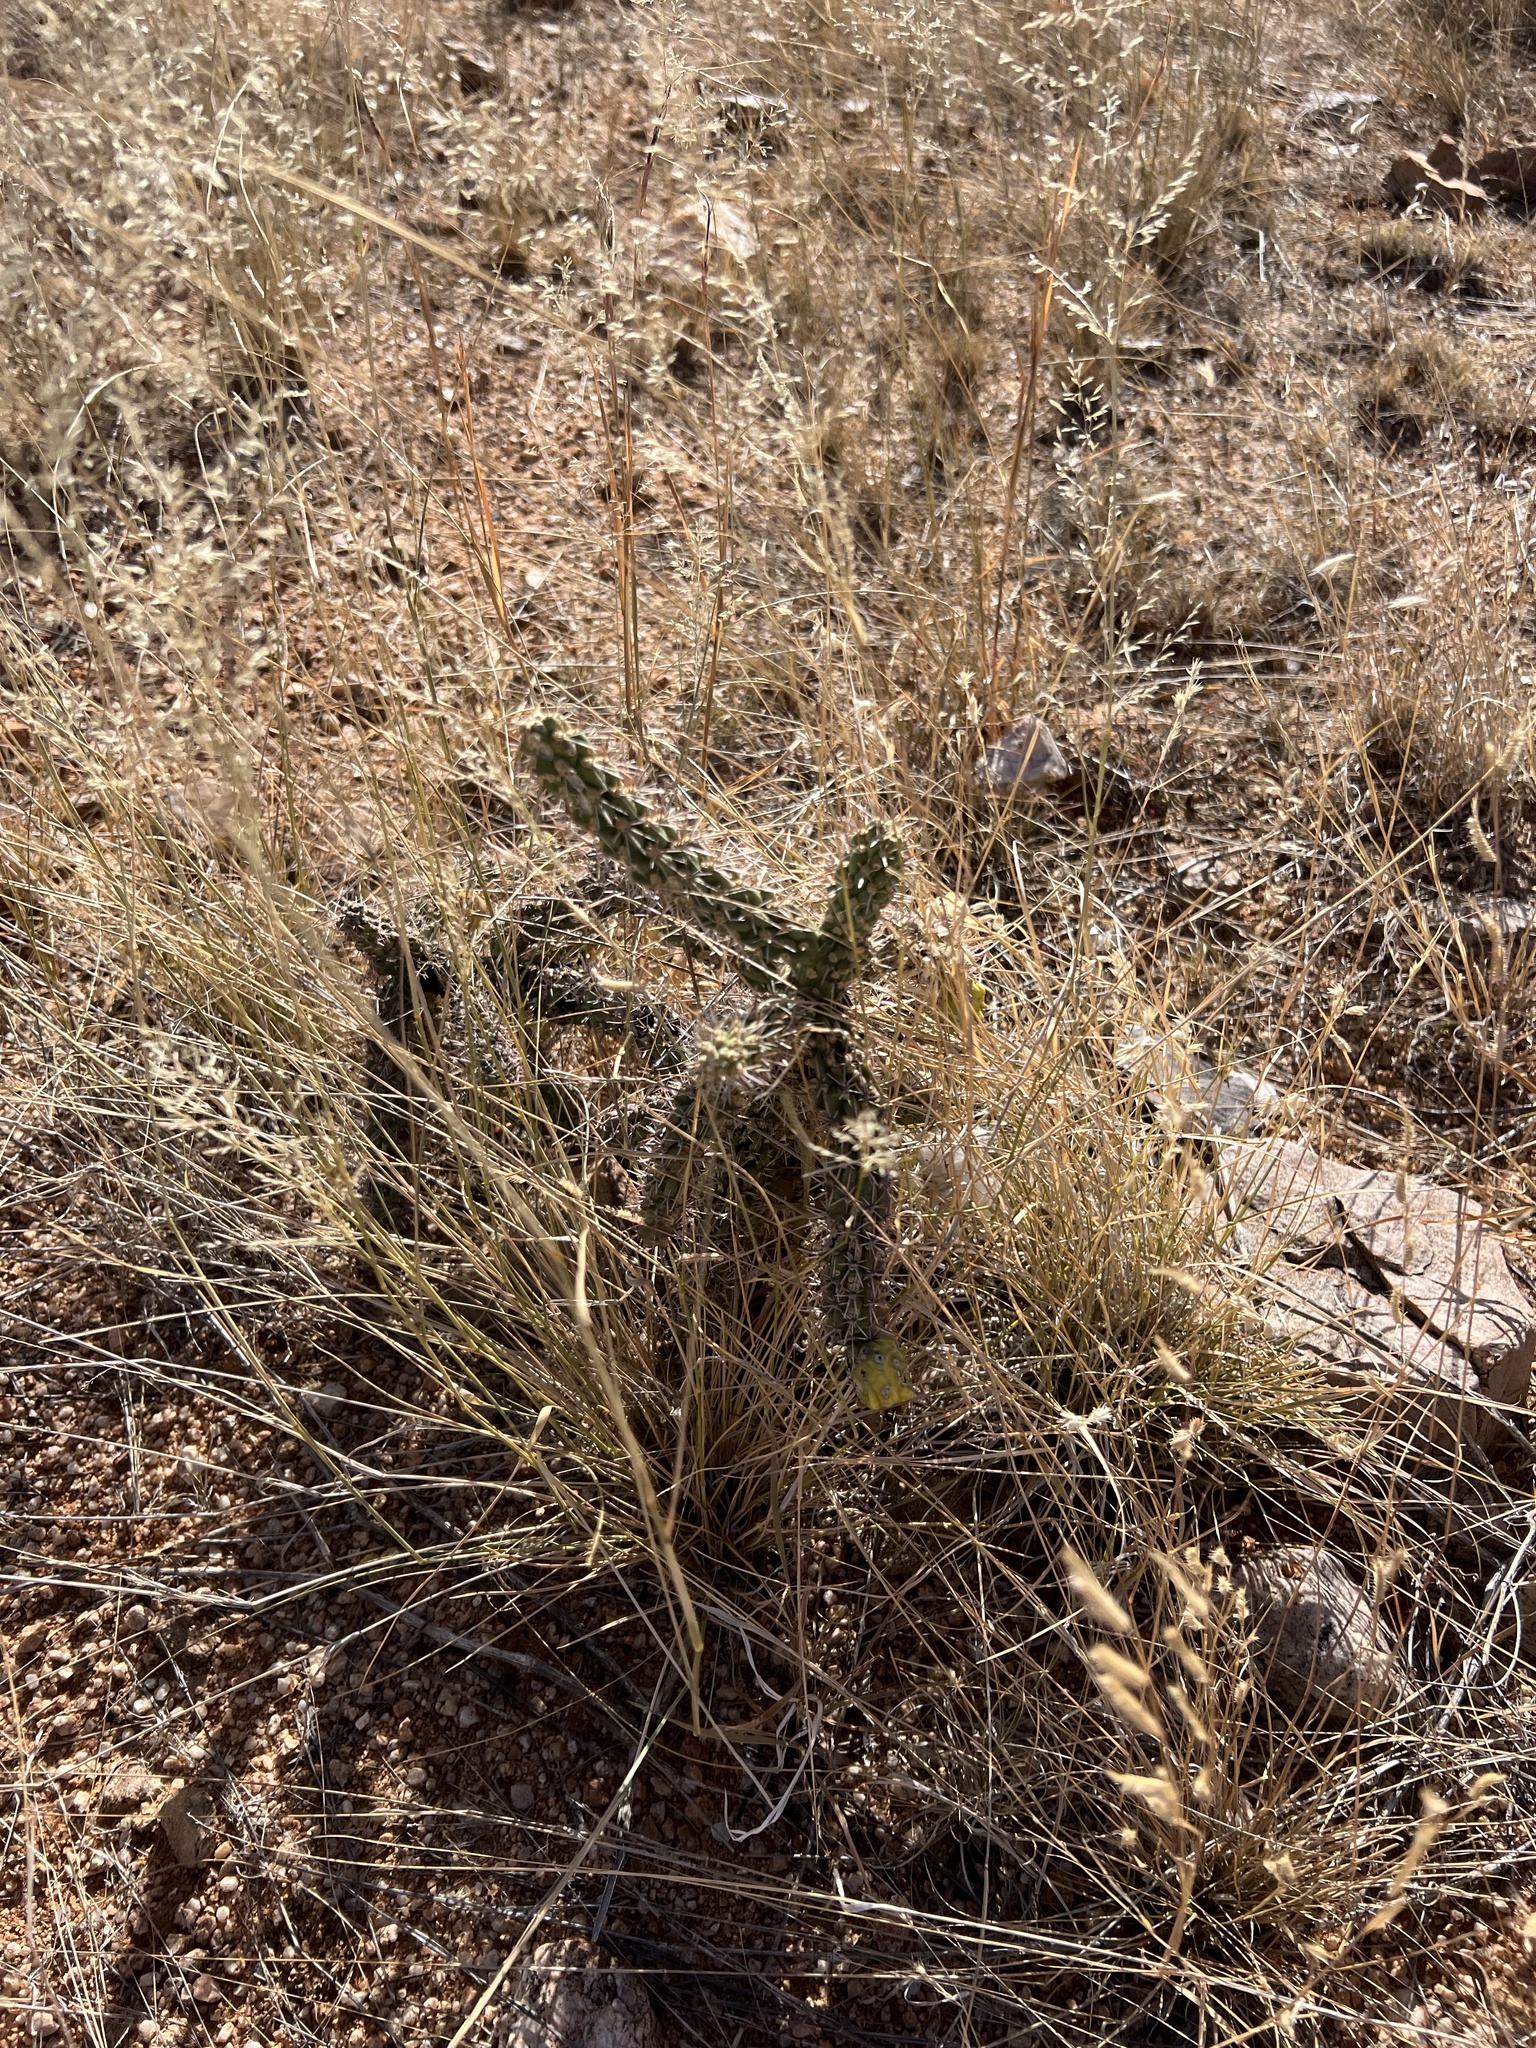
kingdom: Plantae
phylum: Tracheophyta
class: Magnoliopsida
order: Caryophyllales
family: Cactaceae
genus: Cylindropuntia
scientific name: Cylindropuntia imbricata
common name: Candelabrum cactus
